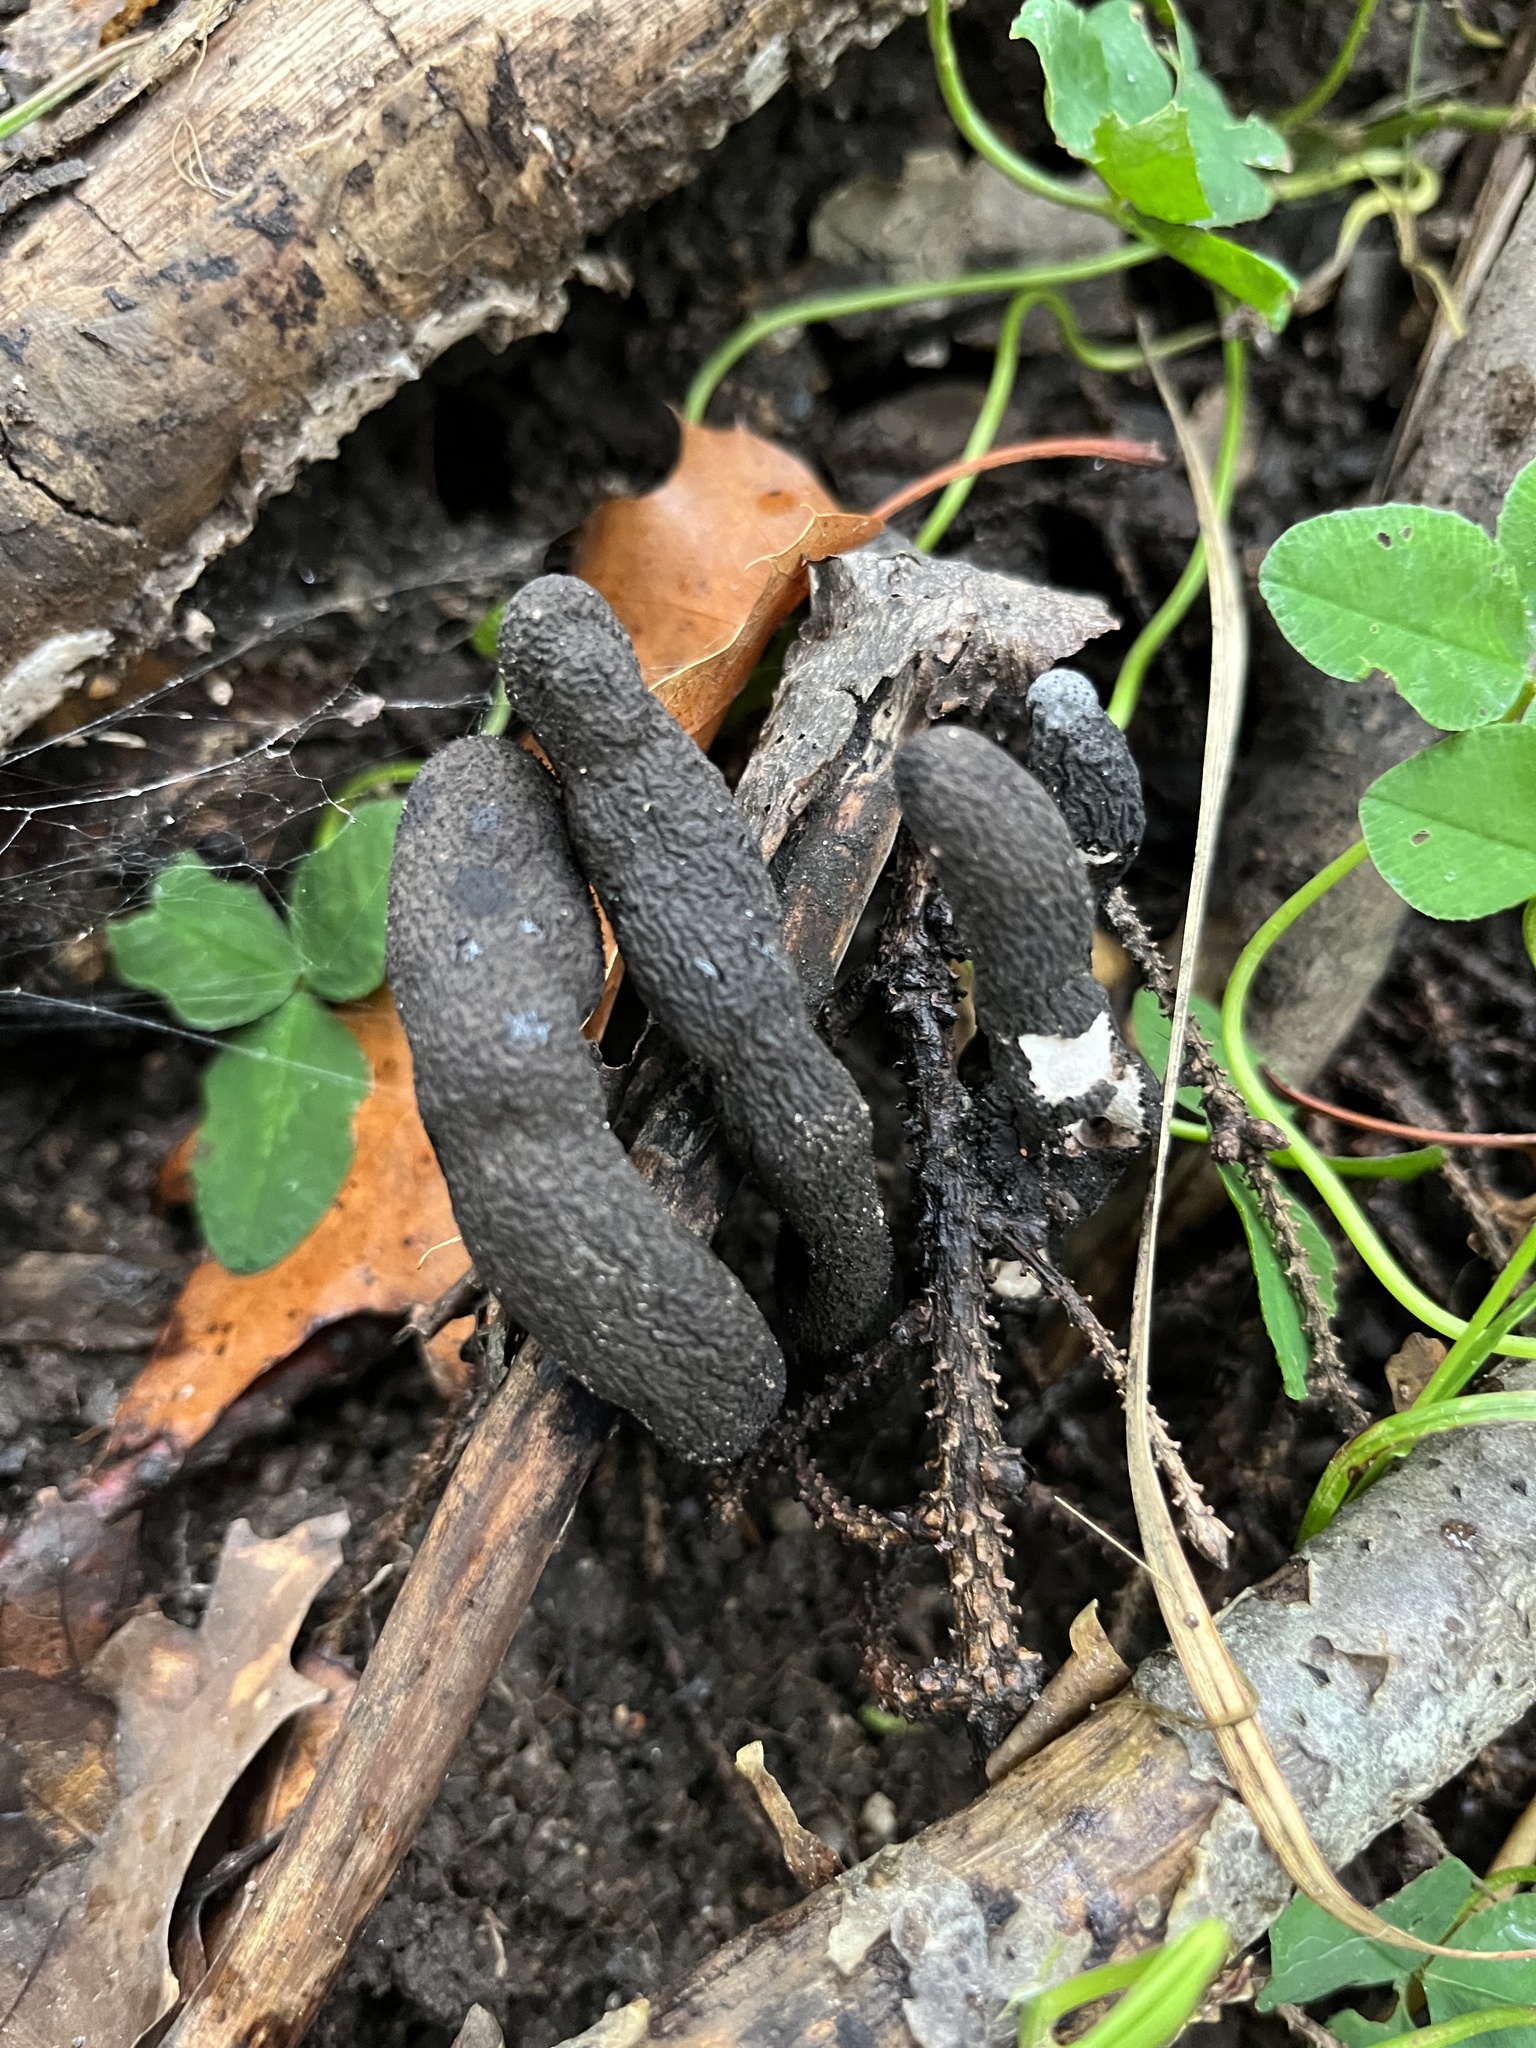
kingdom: Fungi
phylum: Ascomycota
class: Sordariomycetes
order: Xylariales
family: Xylariaceae
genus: Xylaria
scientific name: Xylaria polymorpha
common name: Dead man's fingers
